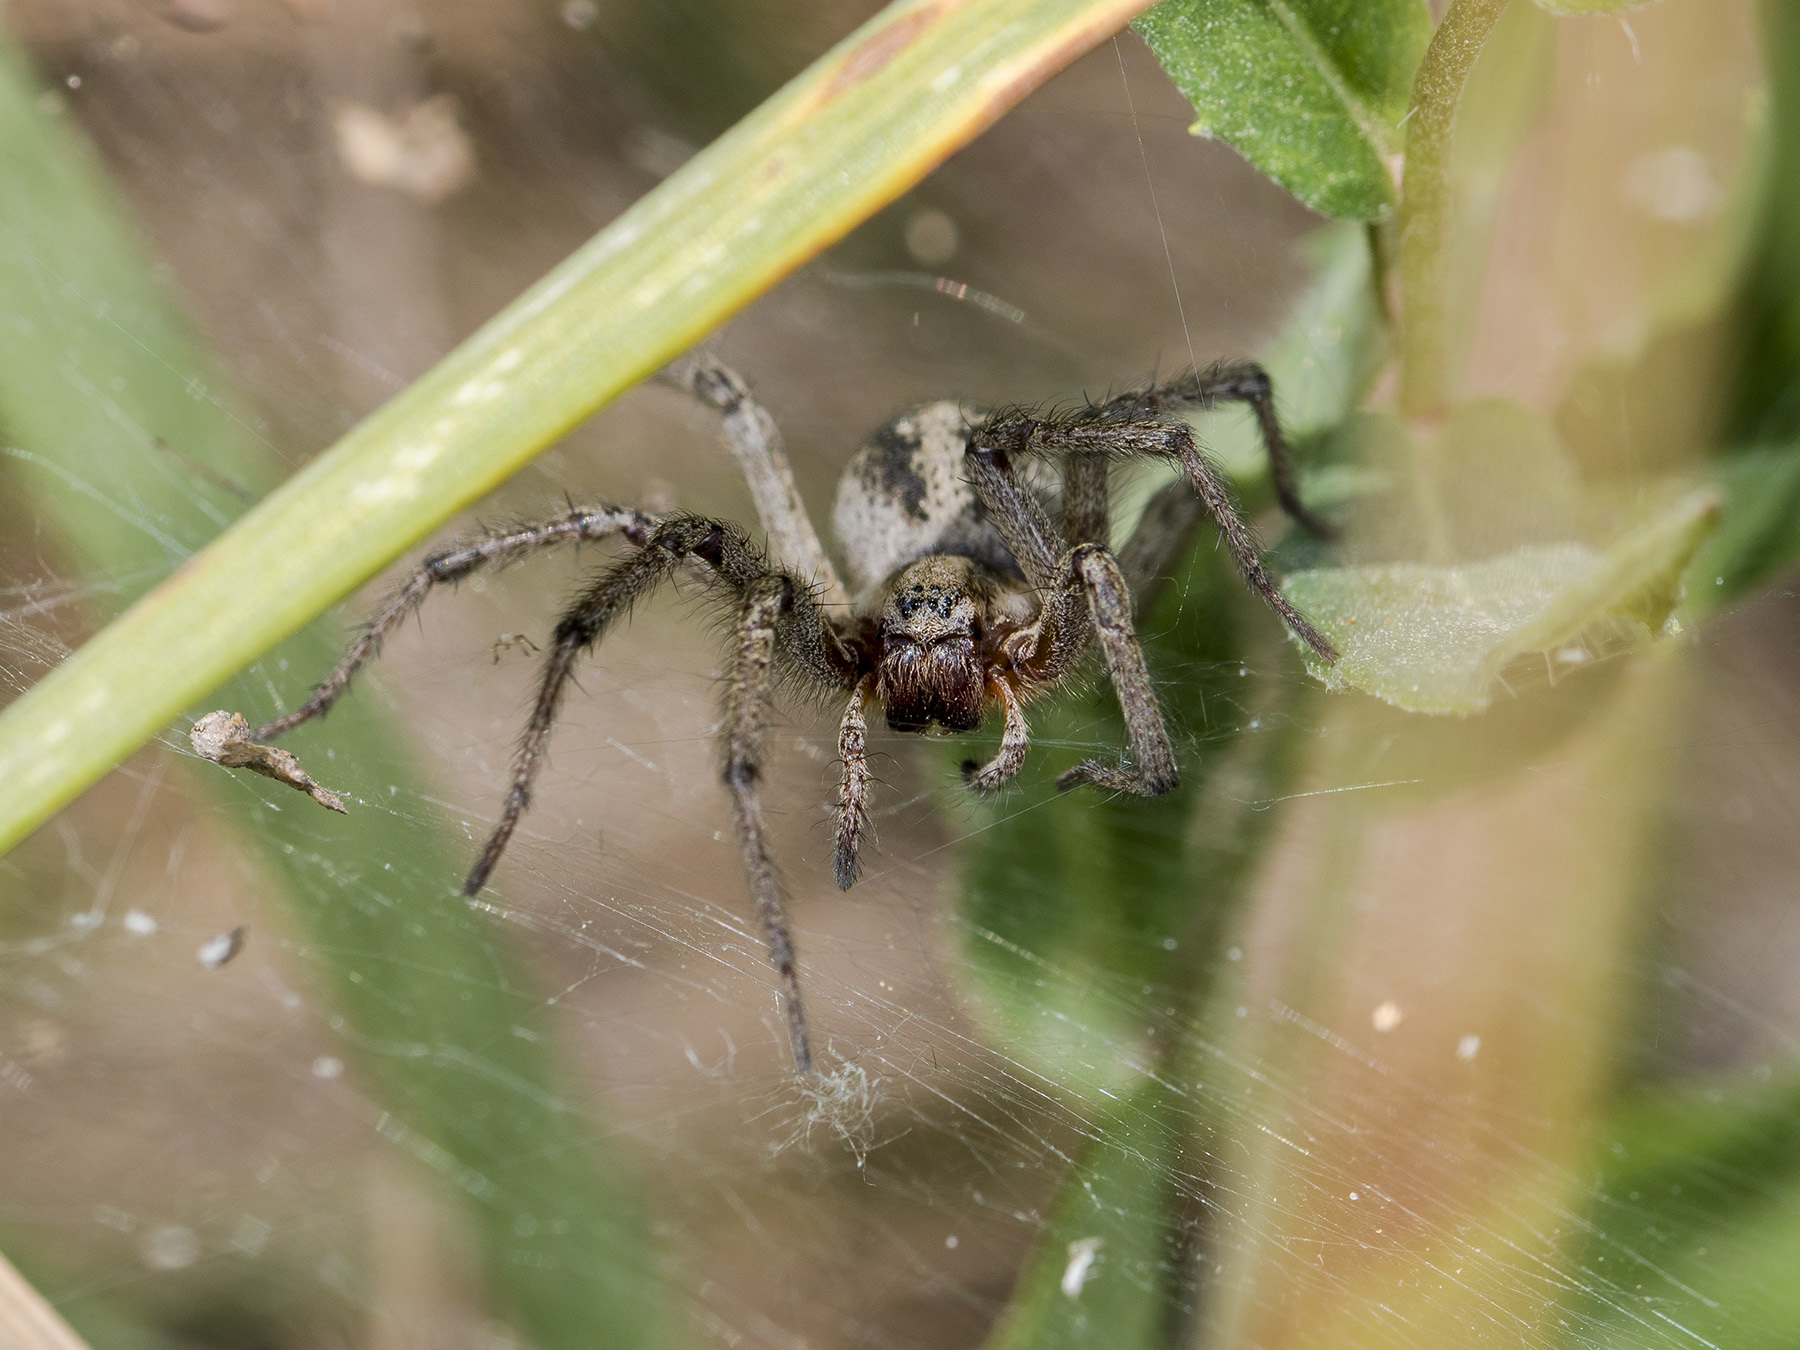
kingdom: Animalia
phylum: Arthropoda
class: Arachnida
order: Araneae
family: Agelenidae
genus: Agelena
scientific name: Agelena labyrinthica
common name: Labyrinth spider
